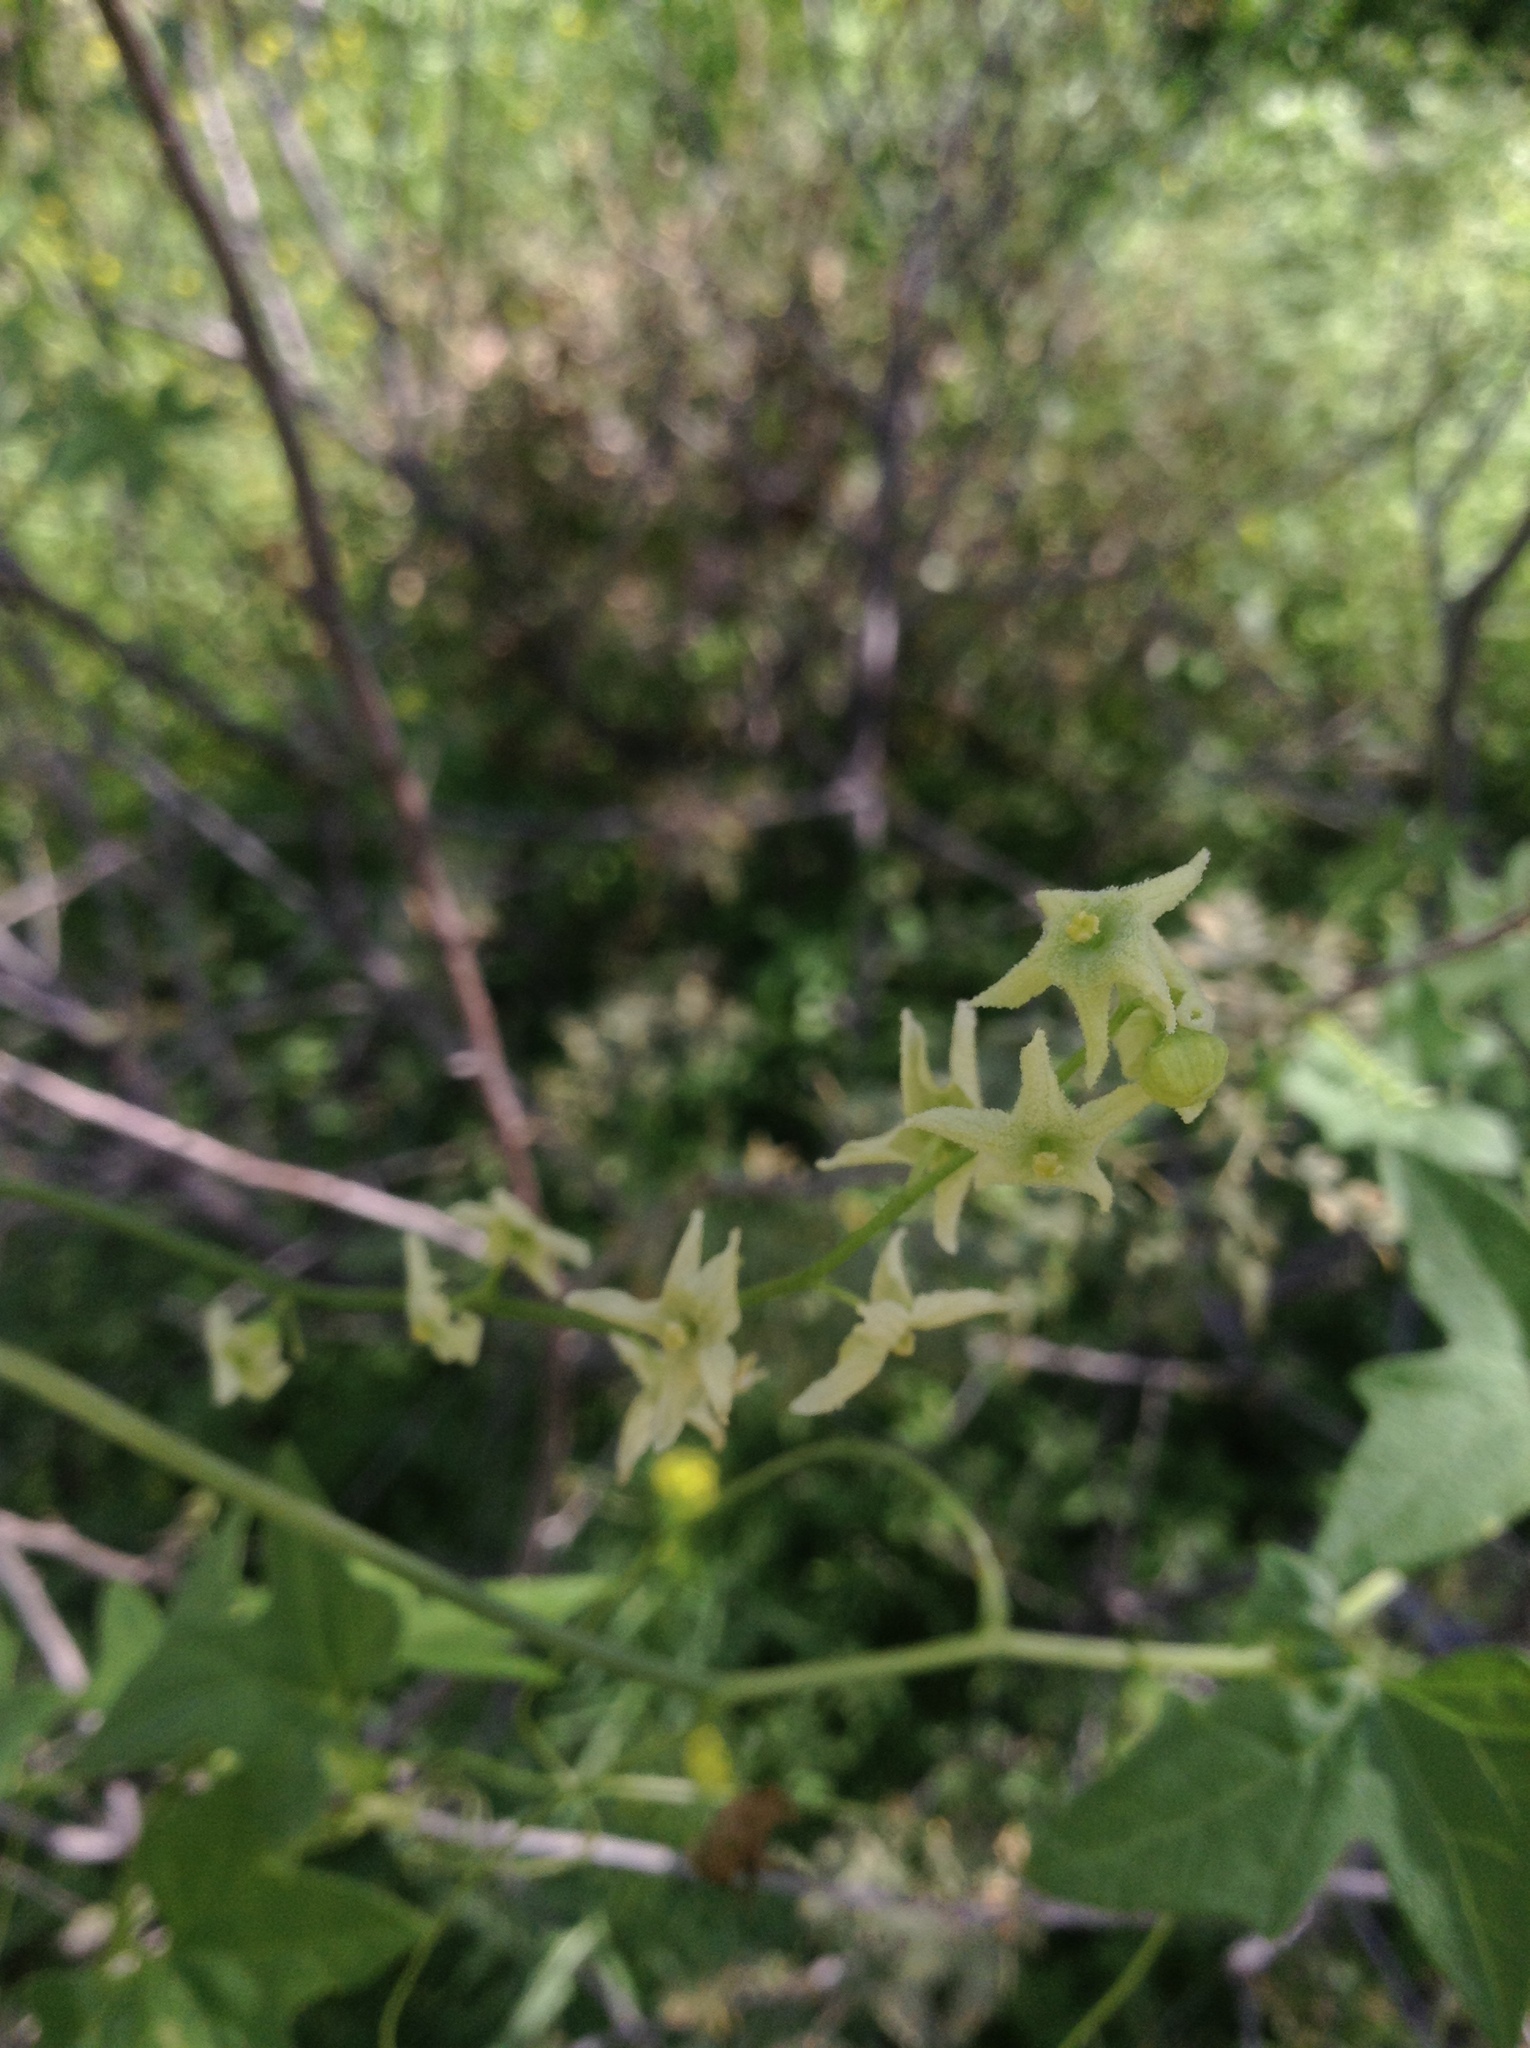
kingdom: Plantae
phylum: Tracheophyta
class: Magnoliopsida
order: Cucurbitales
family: Cucurbitaceae
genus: Marah
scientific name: Marah gilensis
